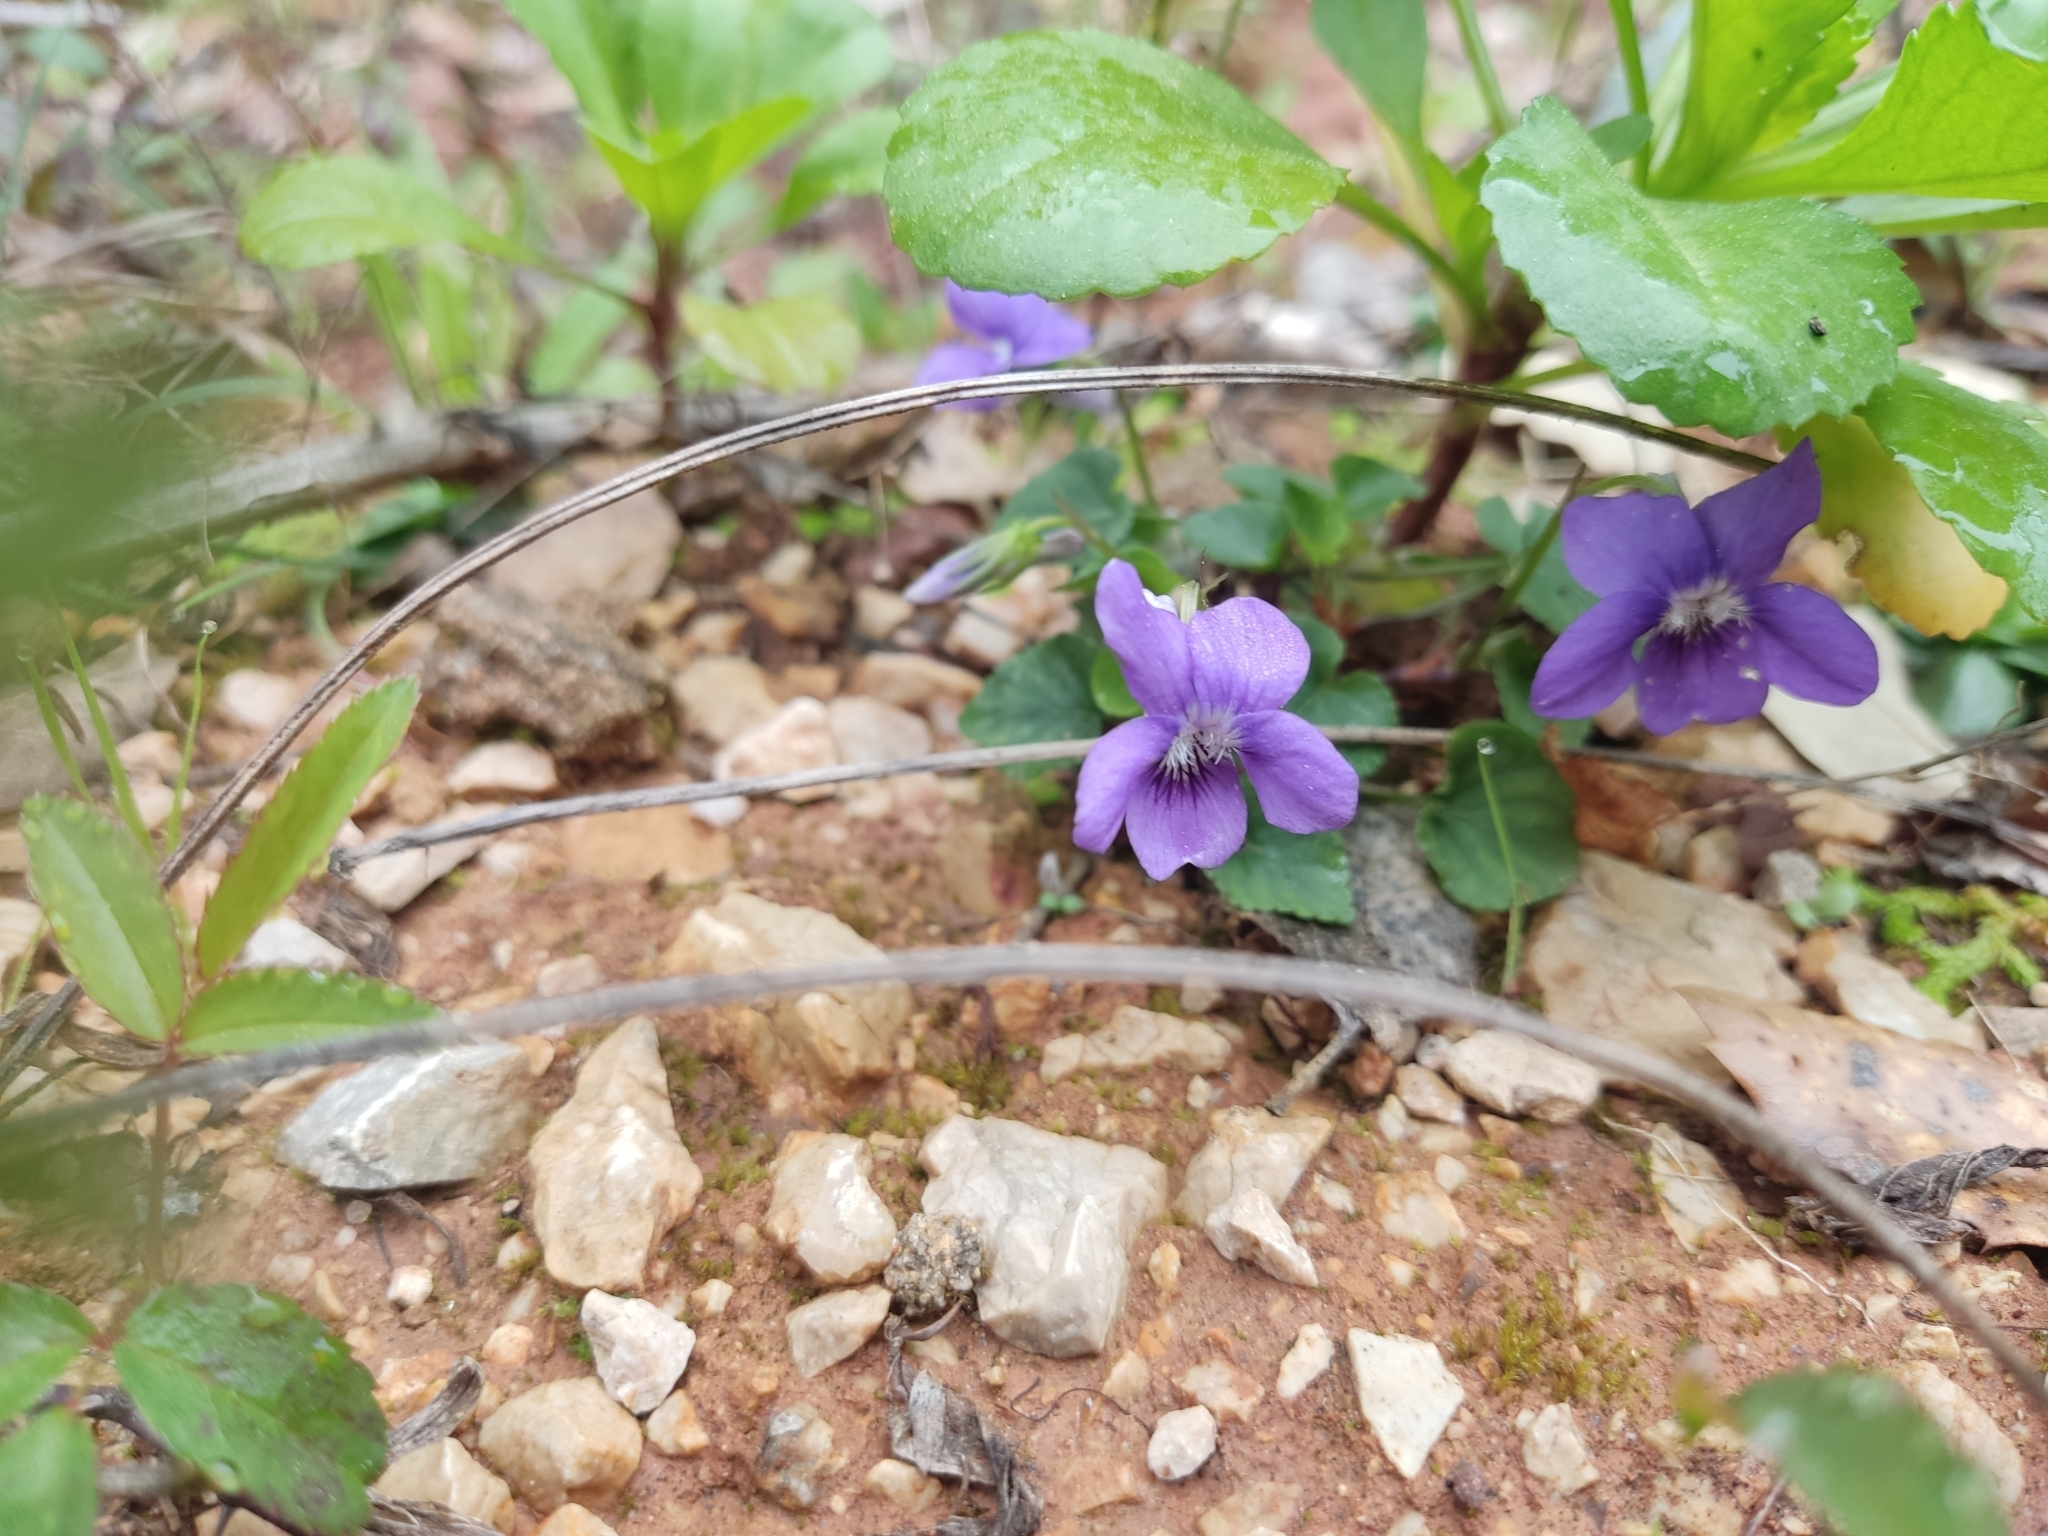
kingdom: Plantae
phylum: Tracheophyta
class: Magnoliopsida
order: Malpighiales
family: Violaceae
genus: Viola
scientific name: Viola riviniana
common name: Common dog-violet
